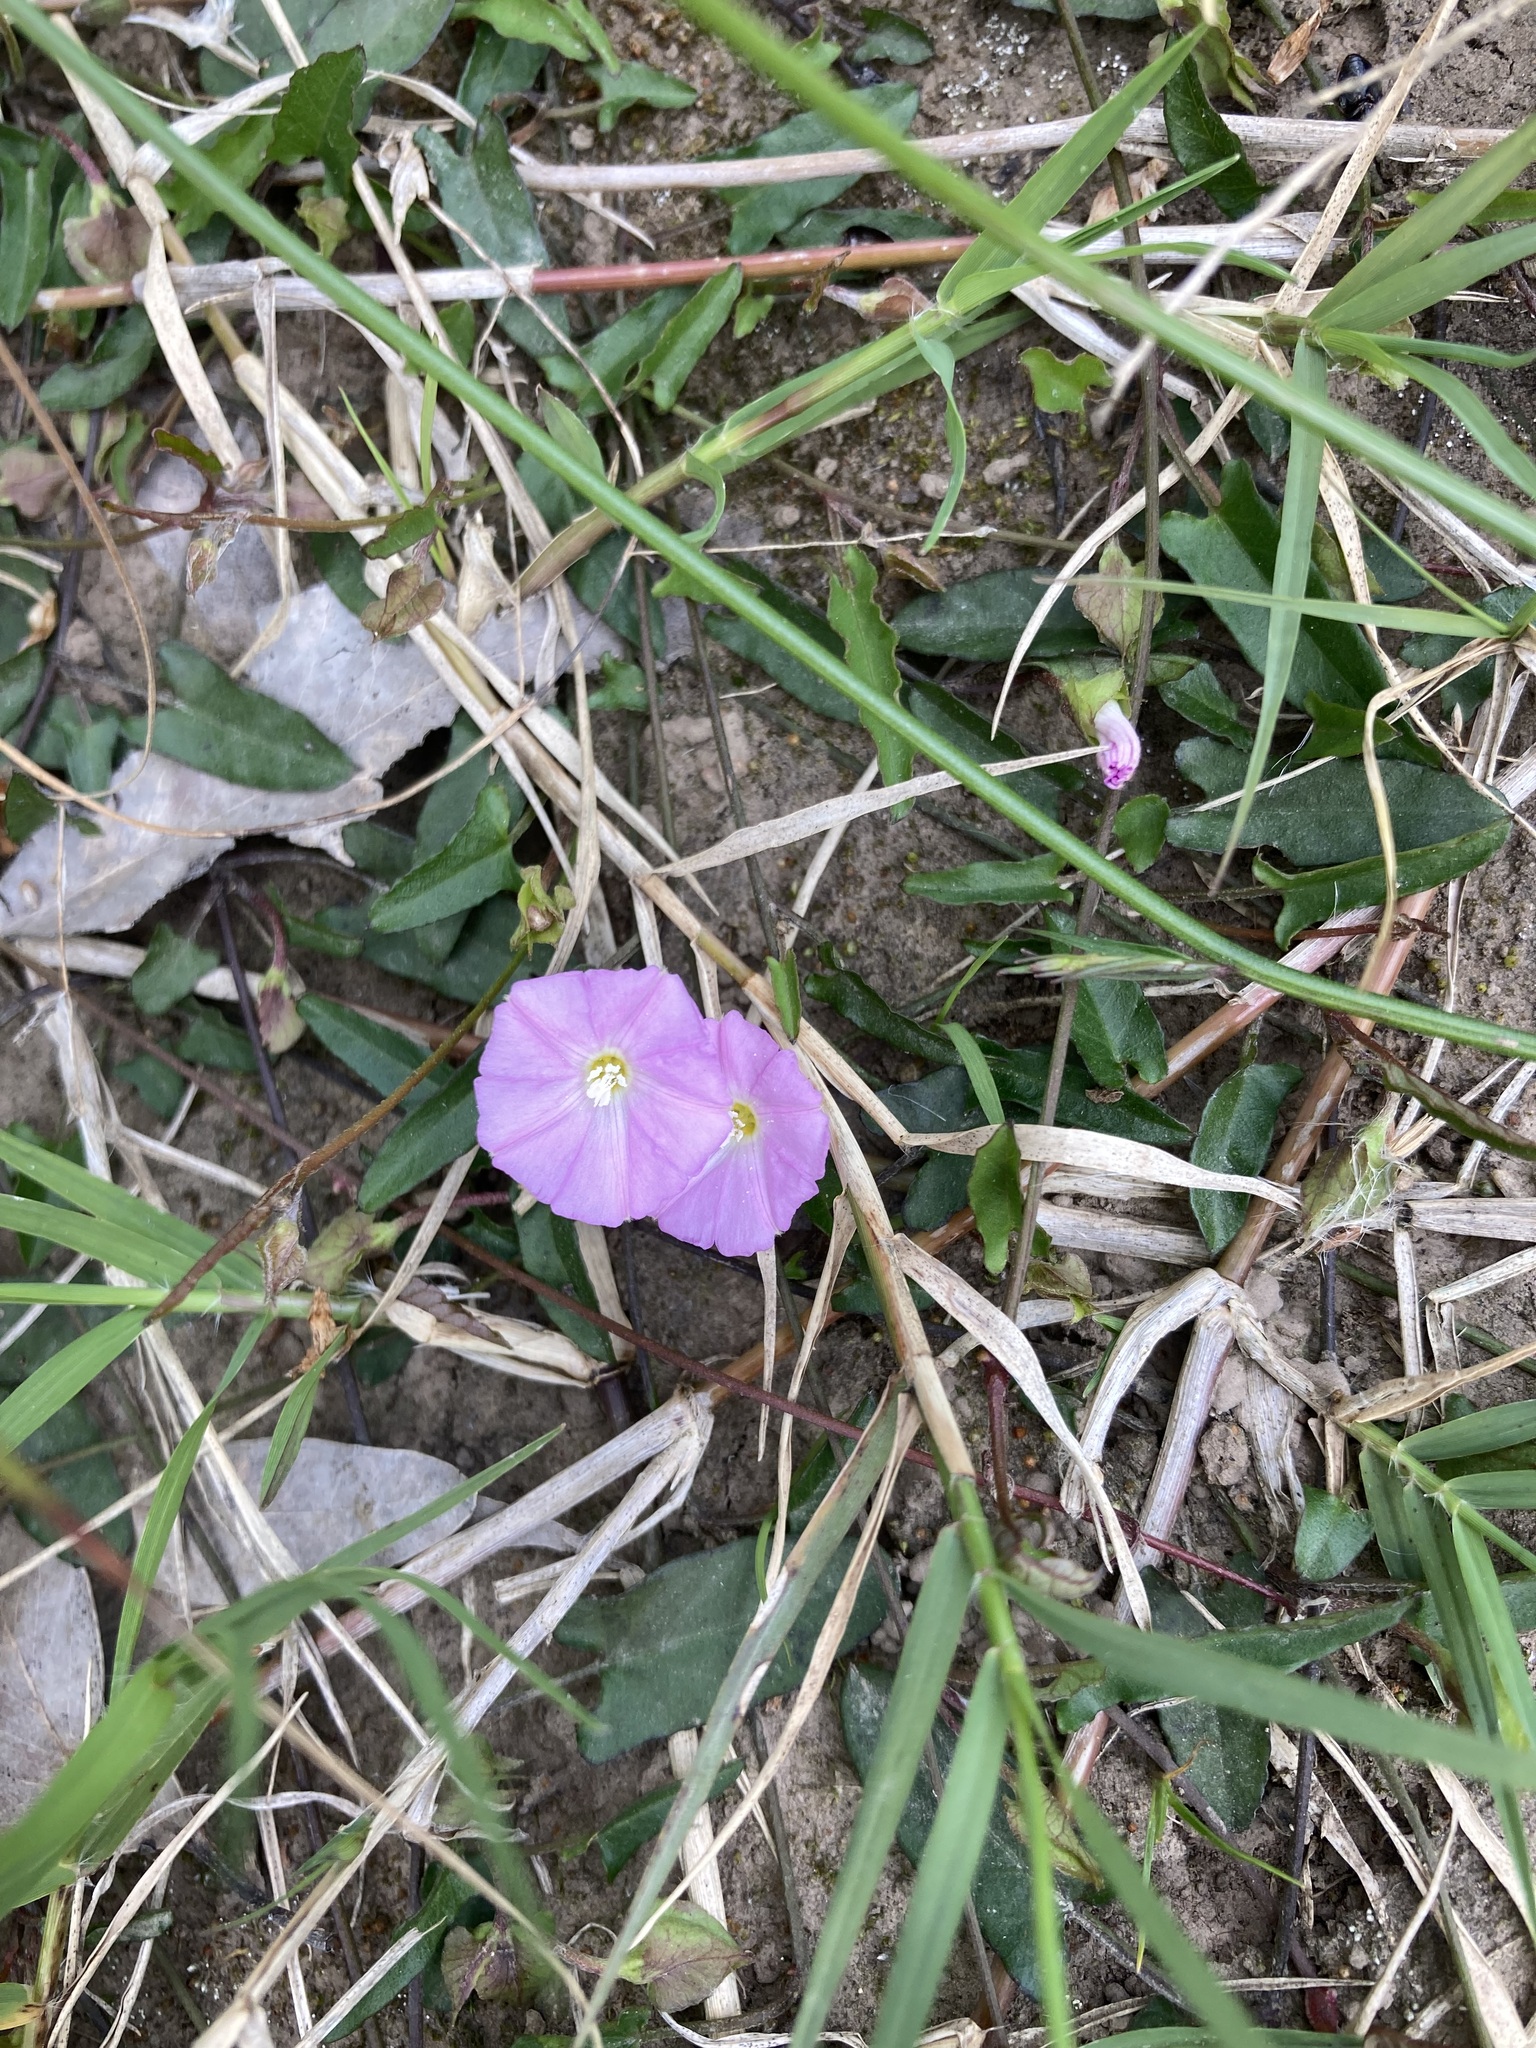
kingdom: Plantae
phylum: Tracheophyta
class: Magnoliopsida
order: Solanales
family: Convolvulaceae
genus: Polymeria
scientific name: Polymeria calycina
